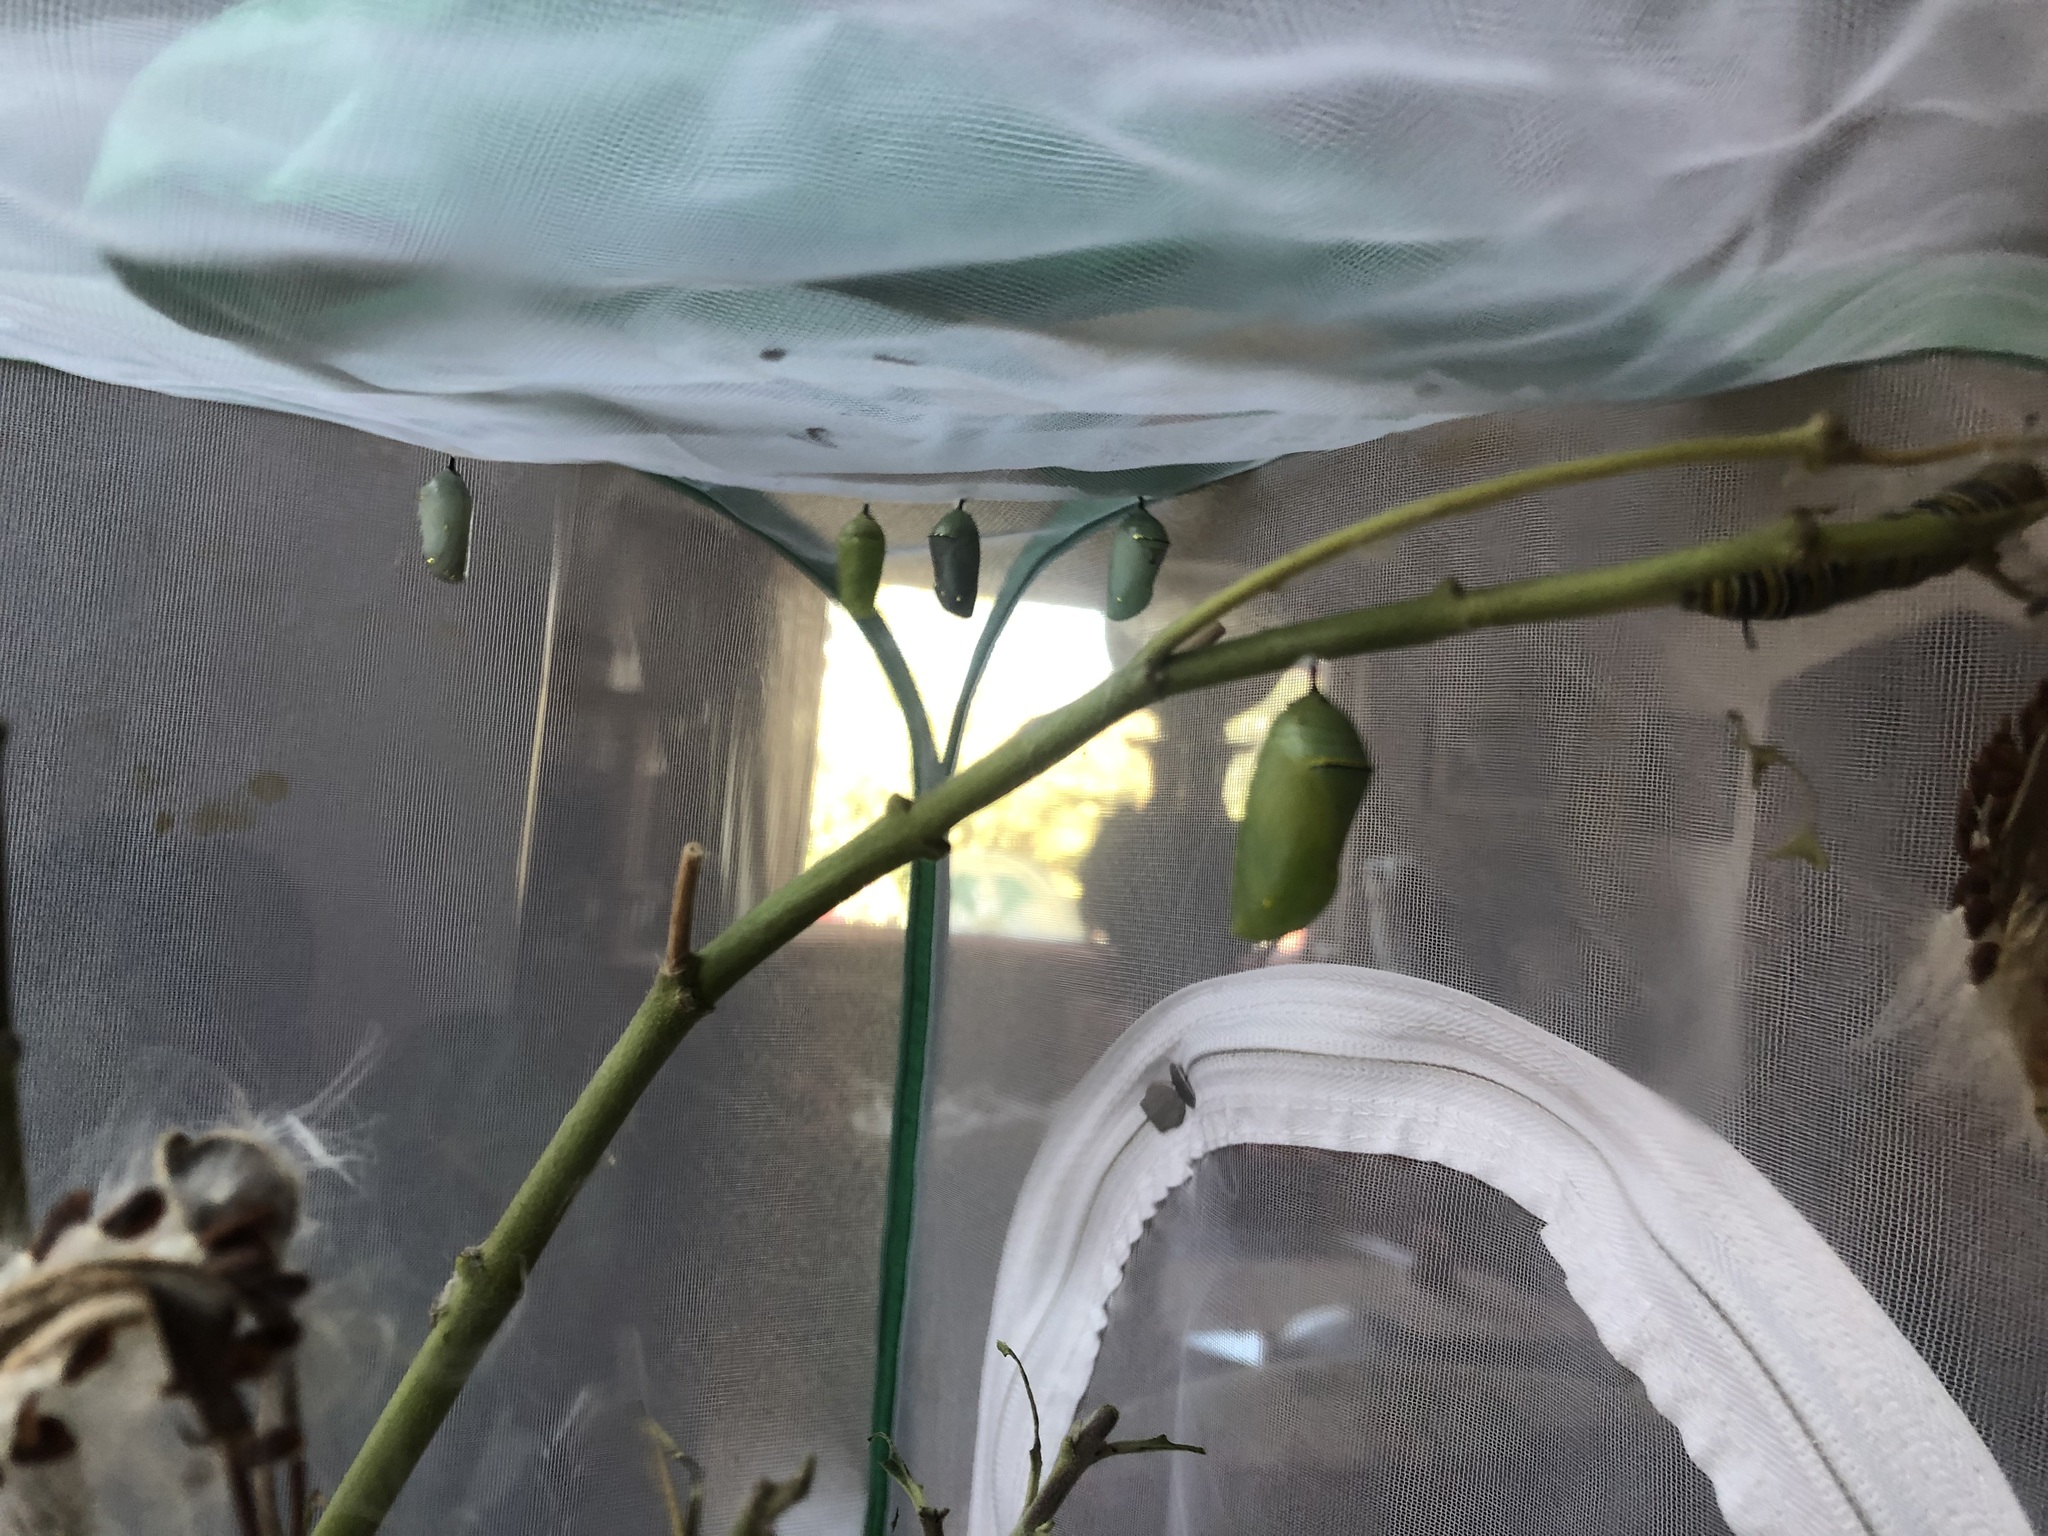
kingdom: Animalia
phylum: Arthropoda
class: Insecta
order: Lepidoptera
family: Nymphalidae
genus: Danaus
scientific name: Danaus plexippus
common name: Monarch
